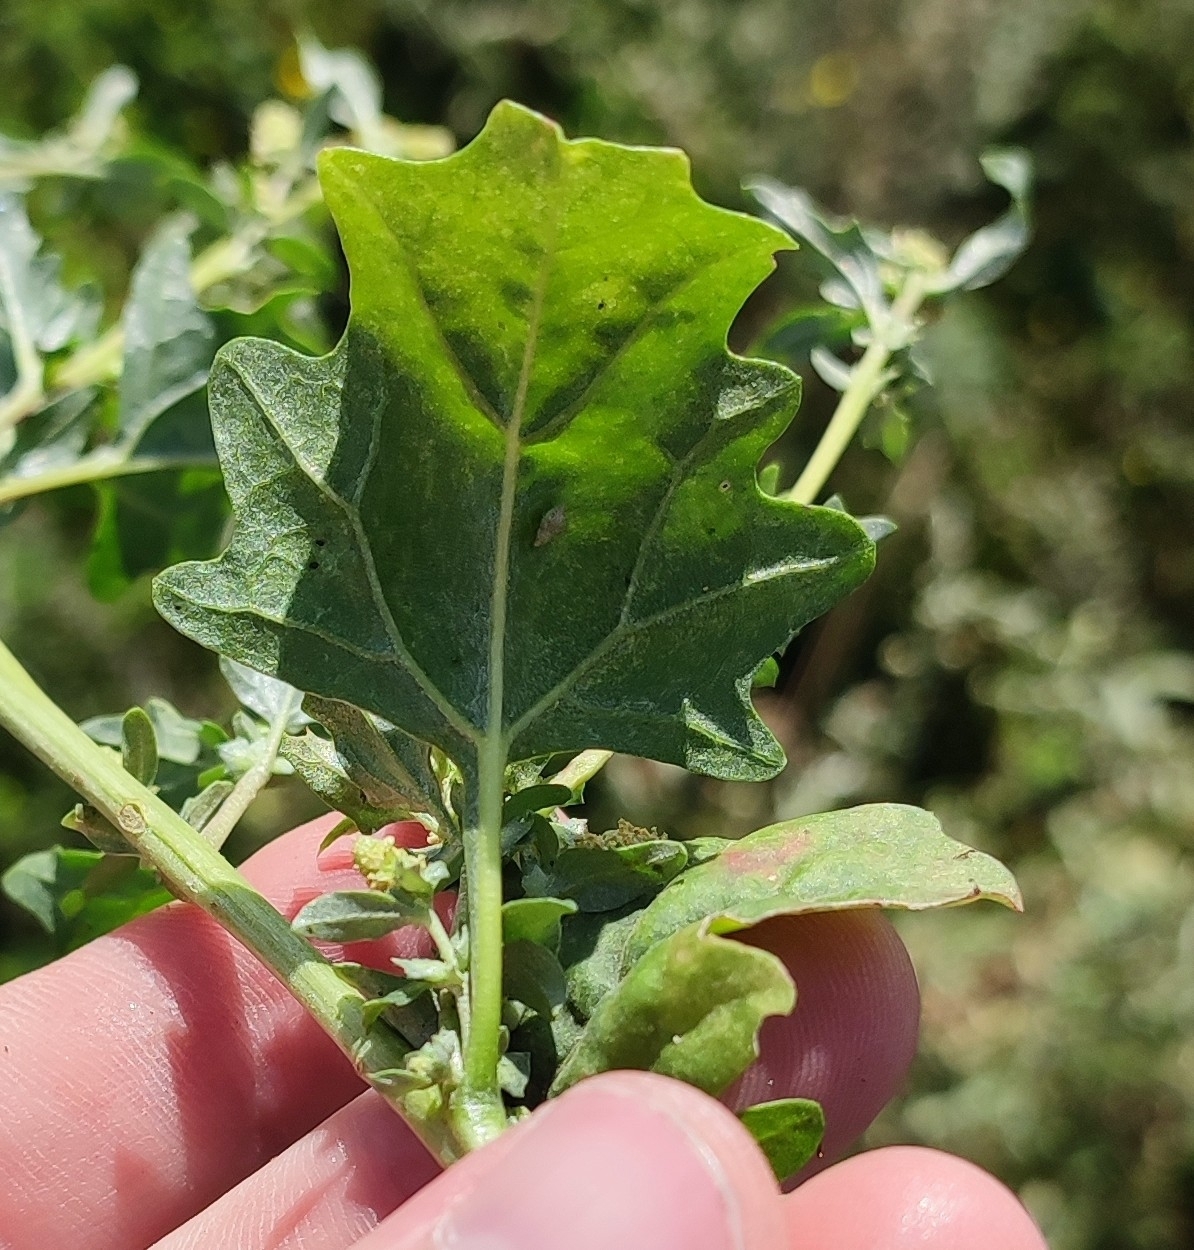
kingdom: Plantae
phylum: Tracheophyta
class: Magnoliopsida
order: Caryophyllales
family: Amaranthaceae
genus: Atriplex
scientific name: Atriplex tatarica
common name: Tatarian orache
